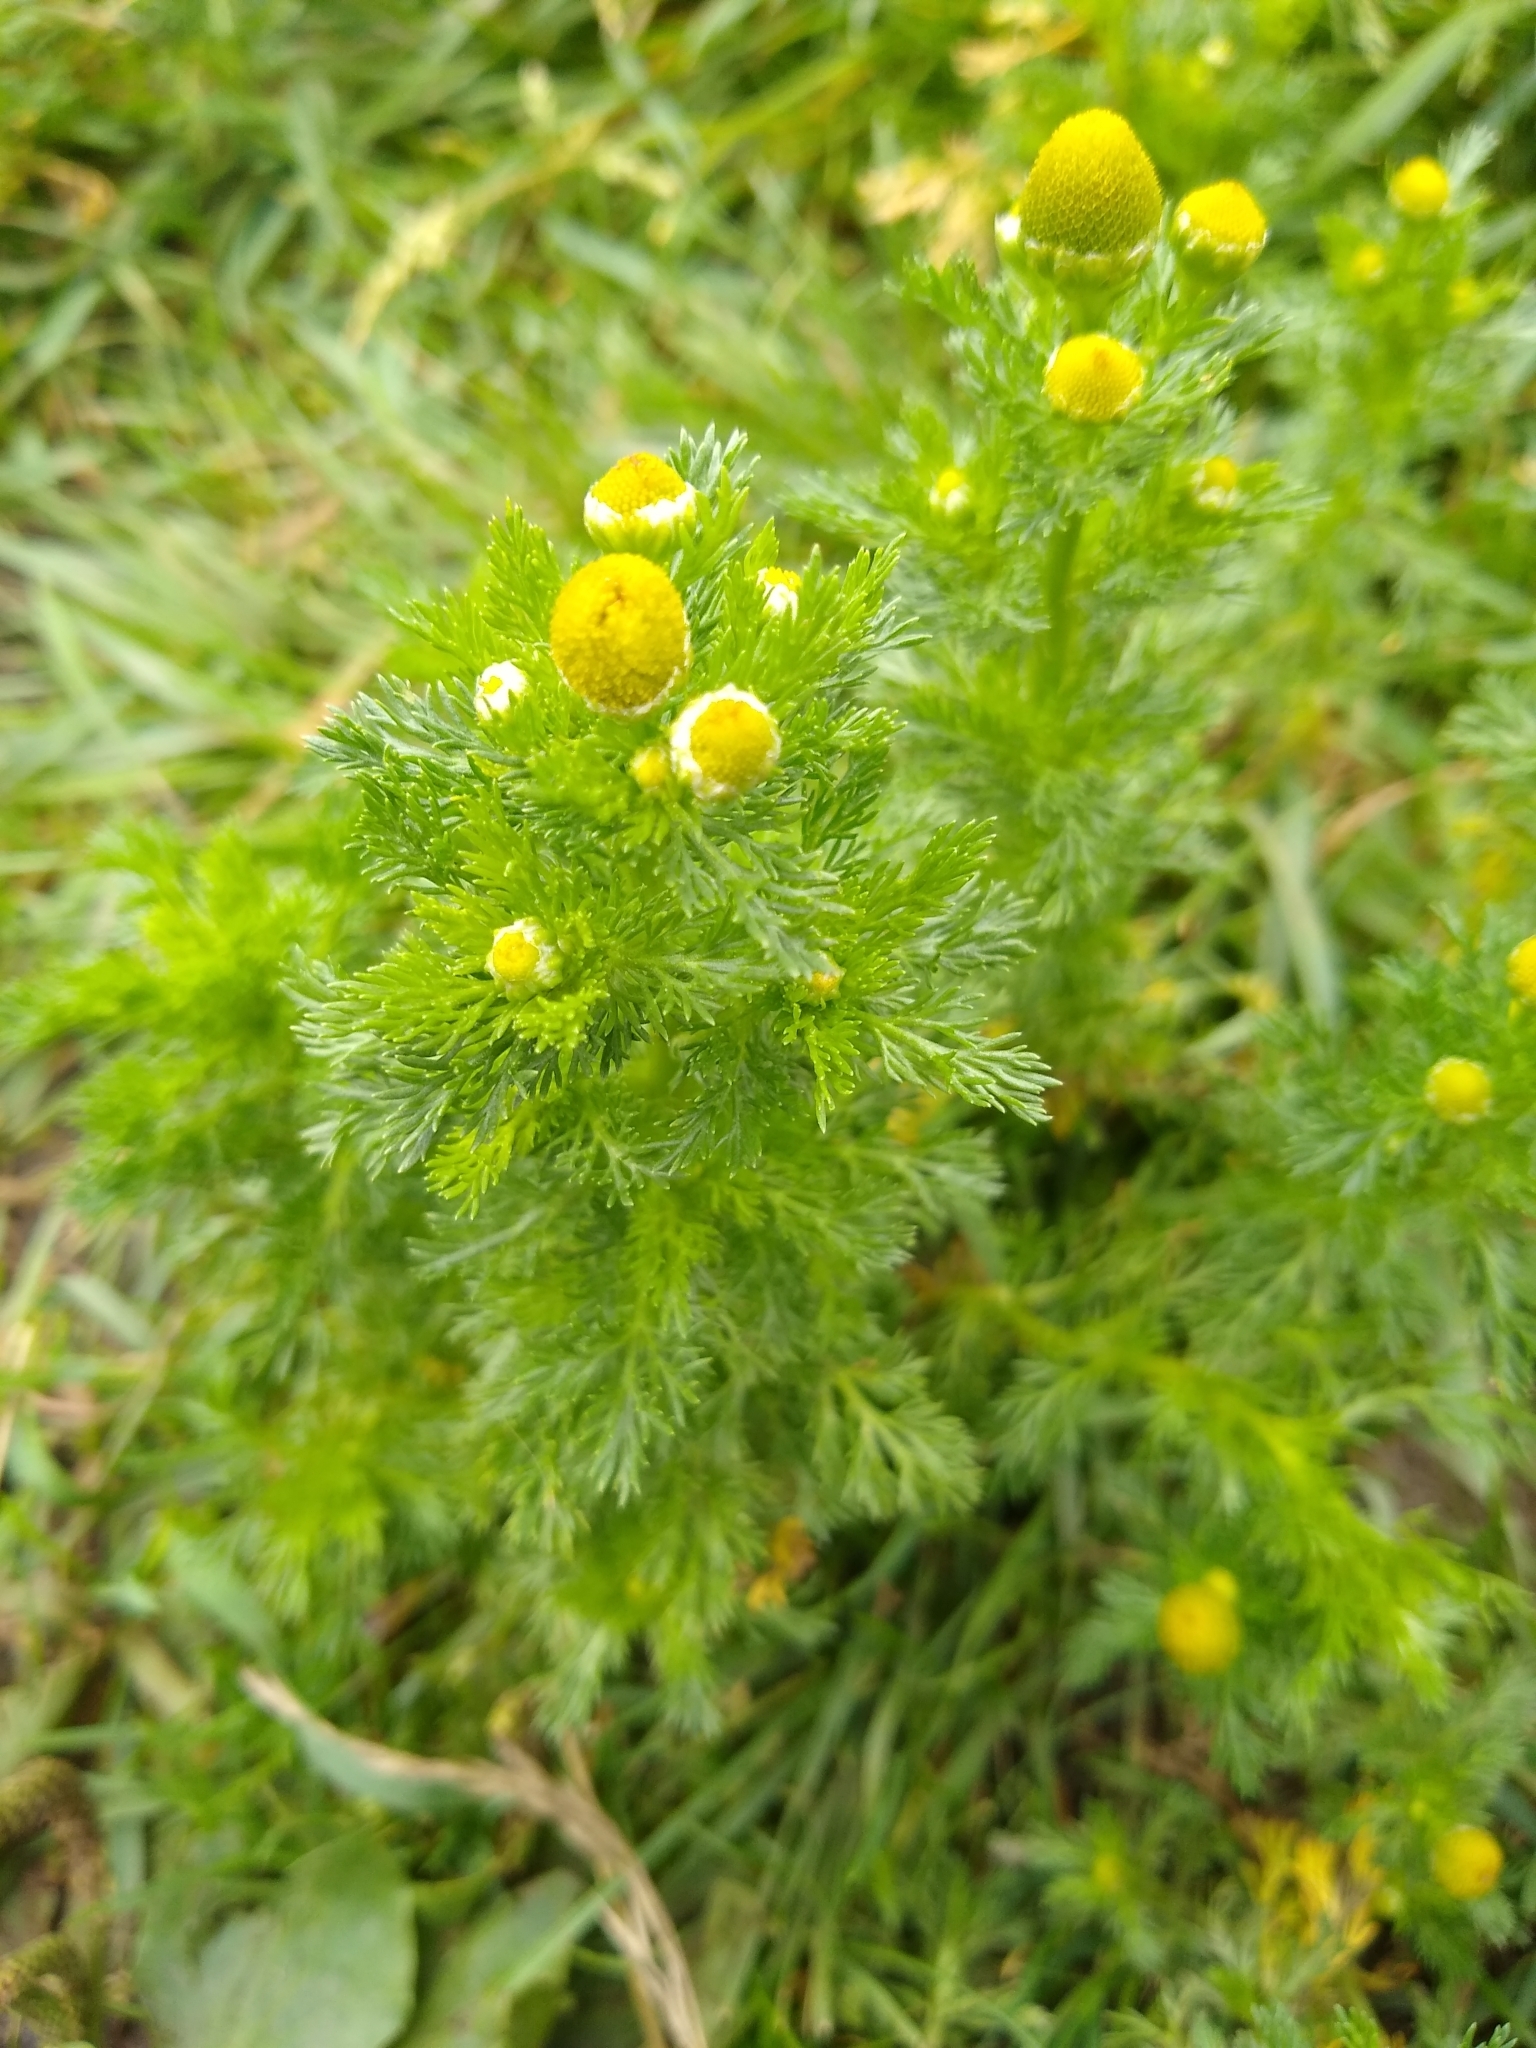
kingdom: Plantae
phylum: Tracheophyta
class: Magnoliopsida
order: Asterales
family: Asteraceae
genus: Matricaria
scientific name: Matricaria discoidea
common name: Disc mayweed
